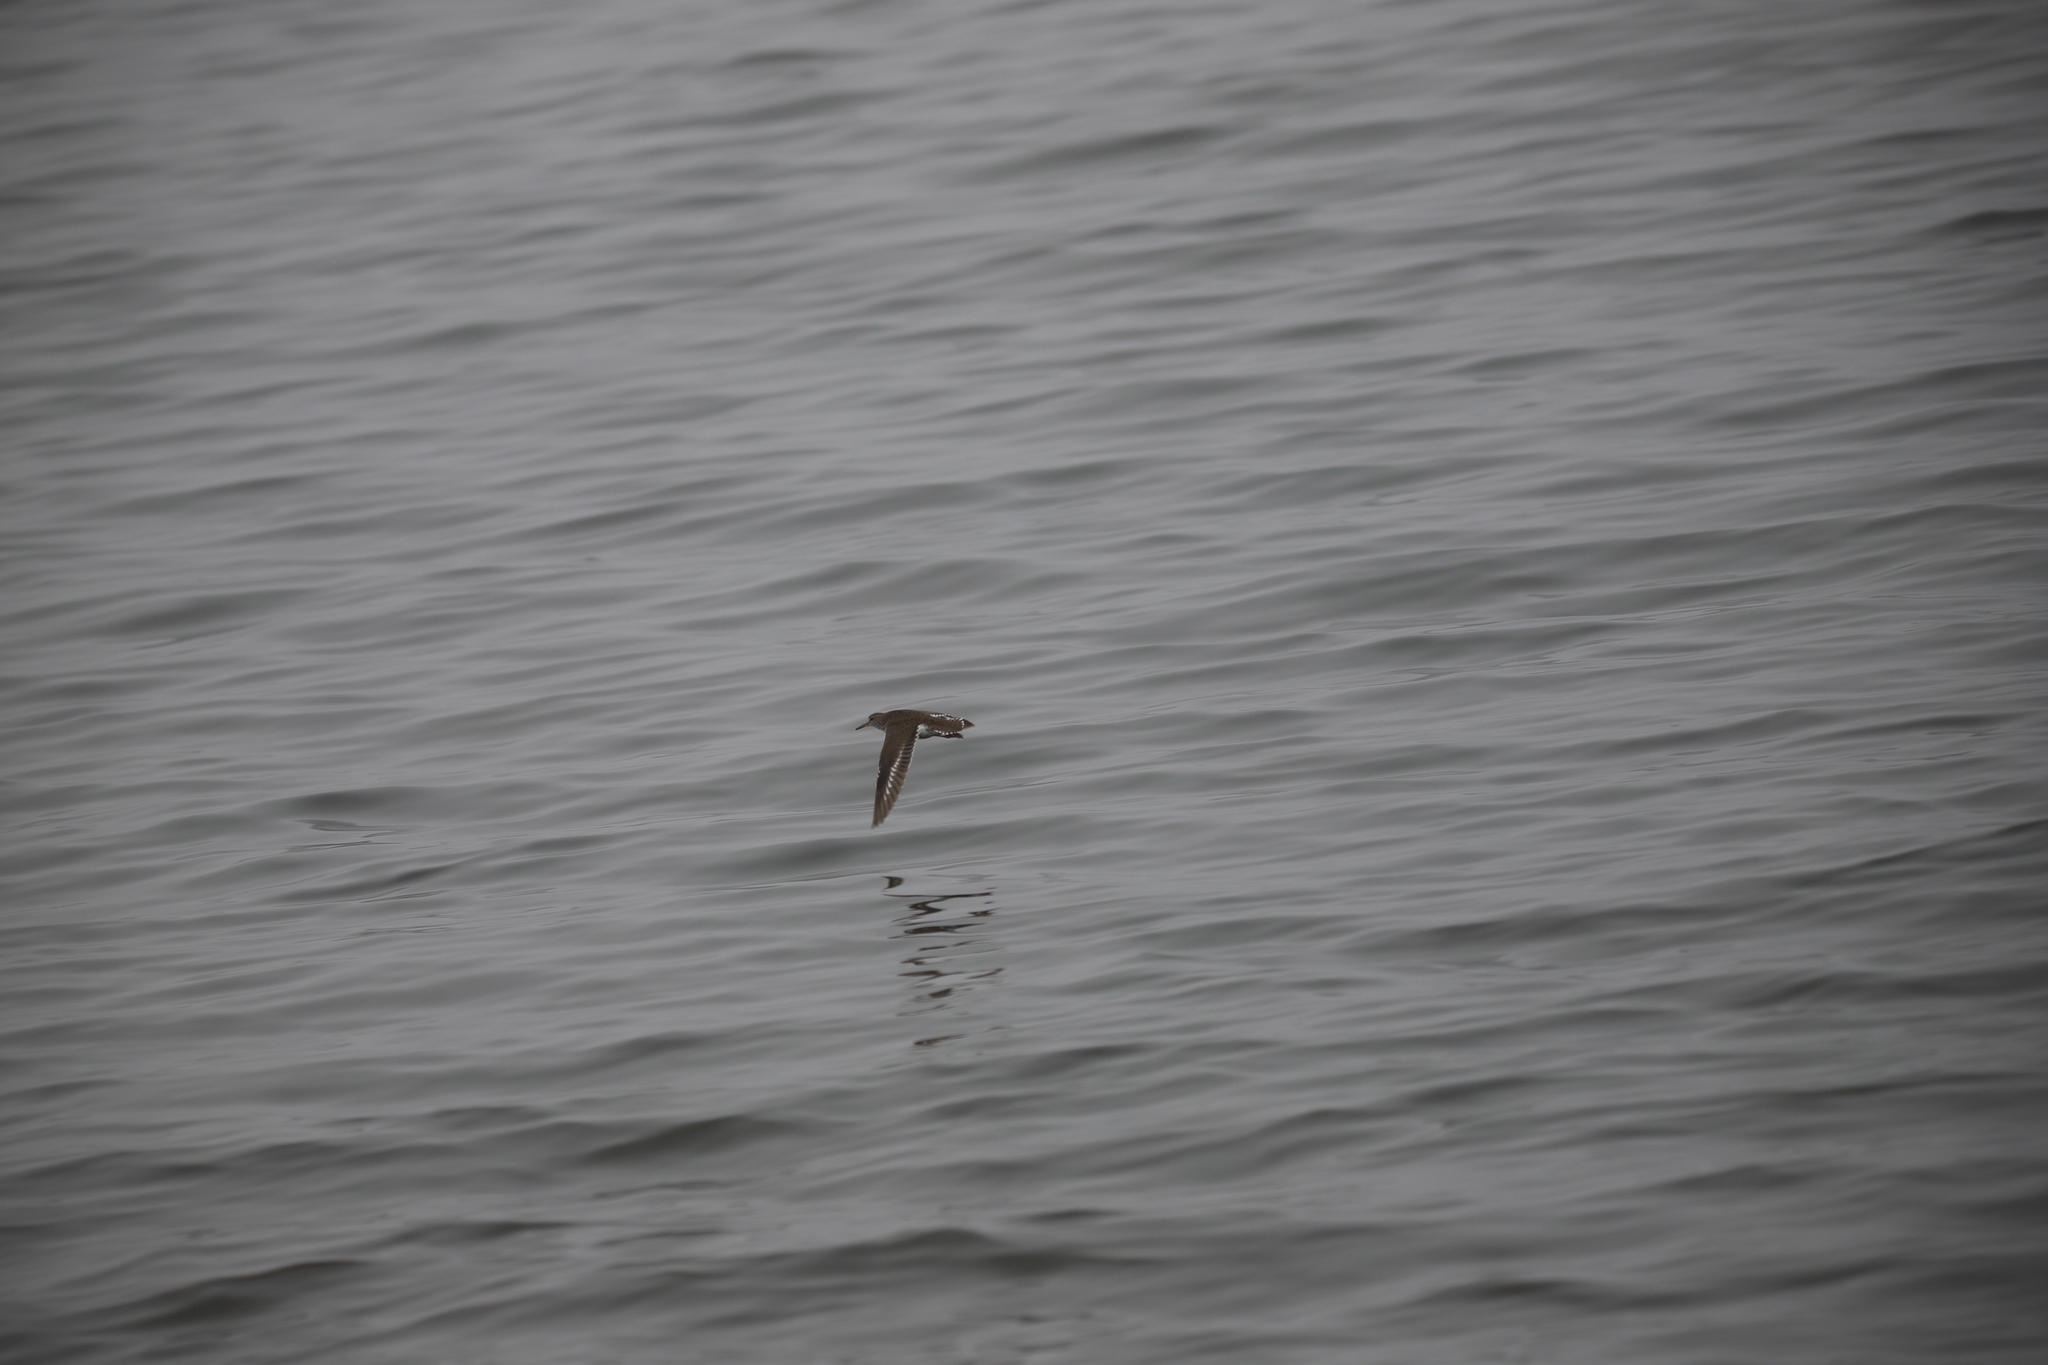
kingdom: Animalia
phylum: Chordata
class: Aves
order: Charadriiformes
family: Scolopacidae
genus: Actitis
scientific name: Actitis macularius
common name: Spotted sandpiper
